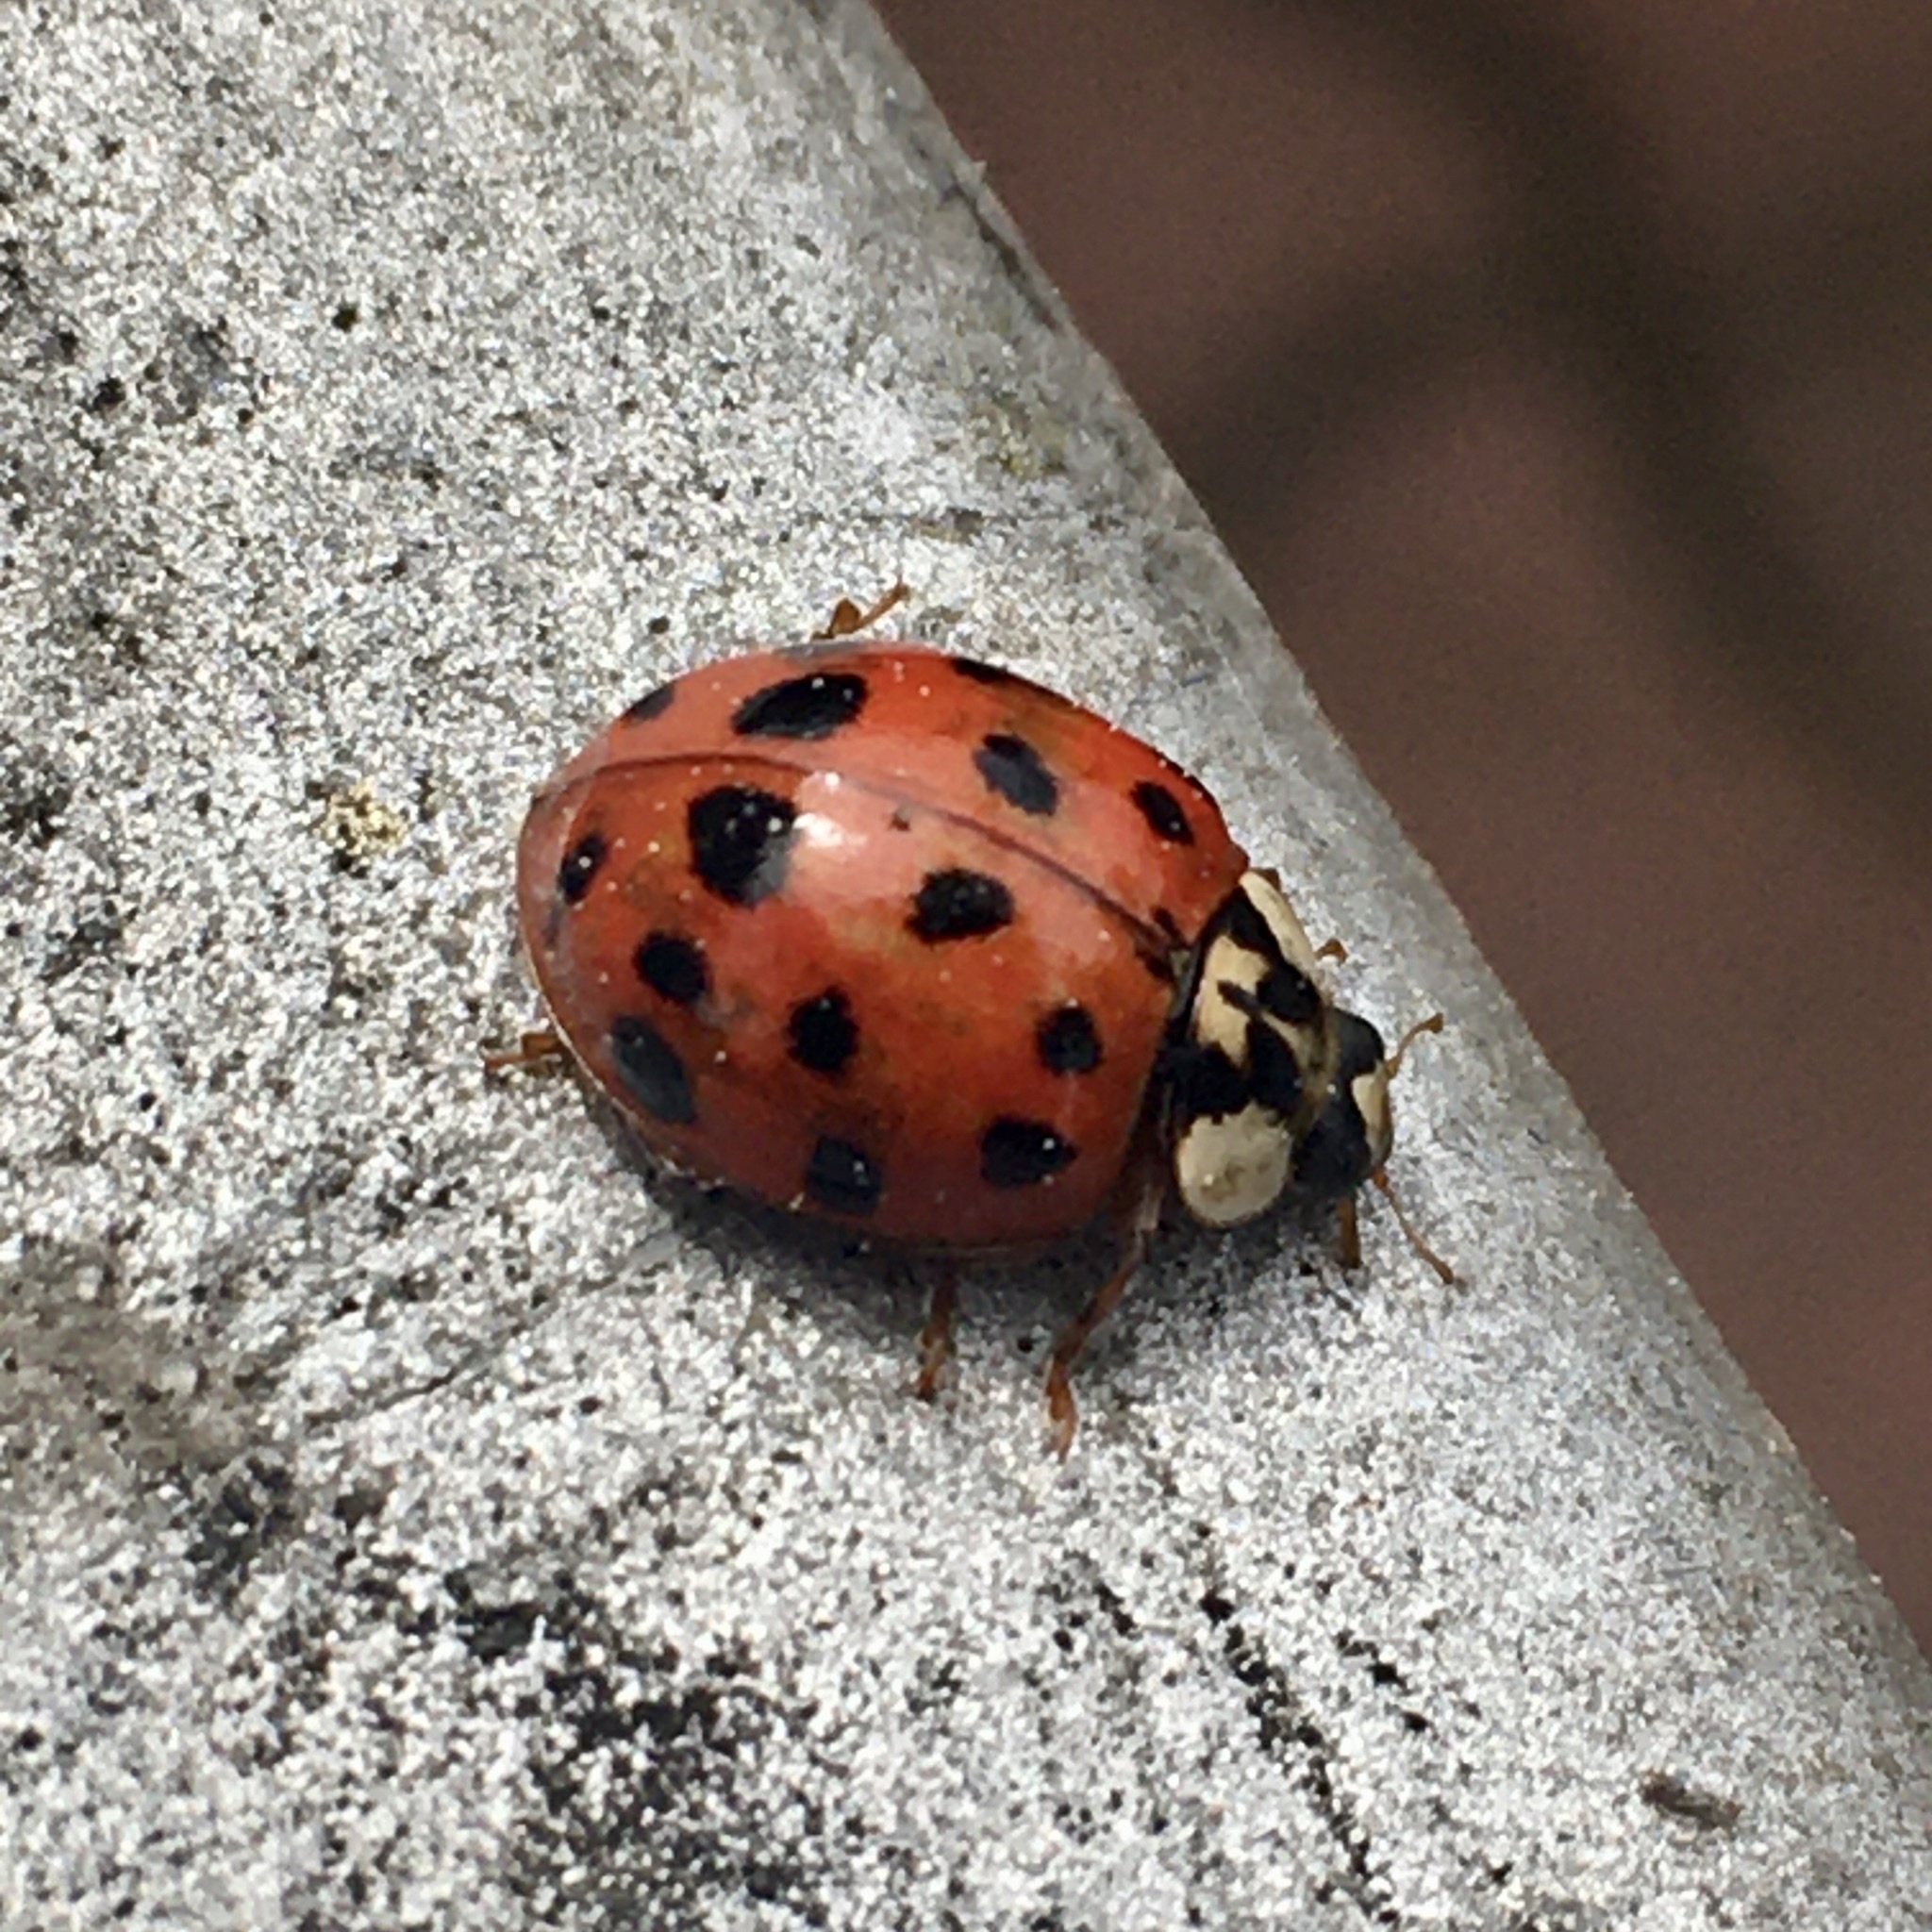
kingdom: Animalia
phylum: Arthropoda
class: Insecta
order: Coleoptera
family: Coccinellidae
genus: Harmonia
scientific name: Harmonia axyridis
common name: Harlequin ladybird
